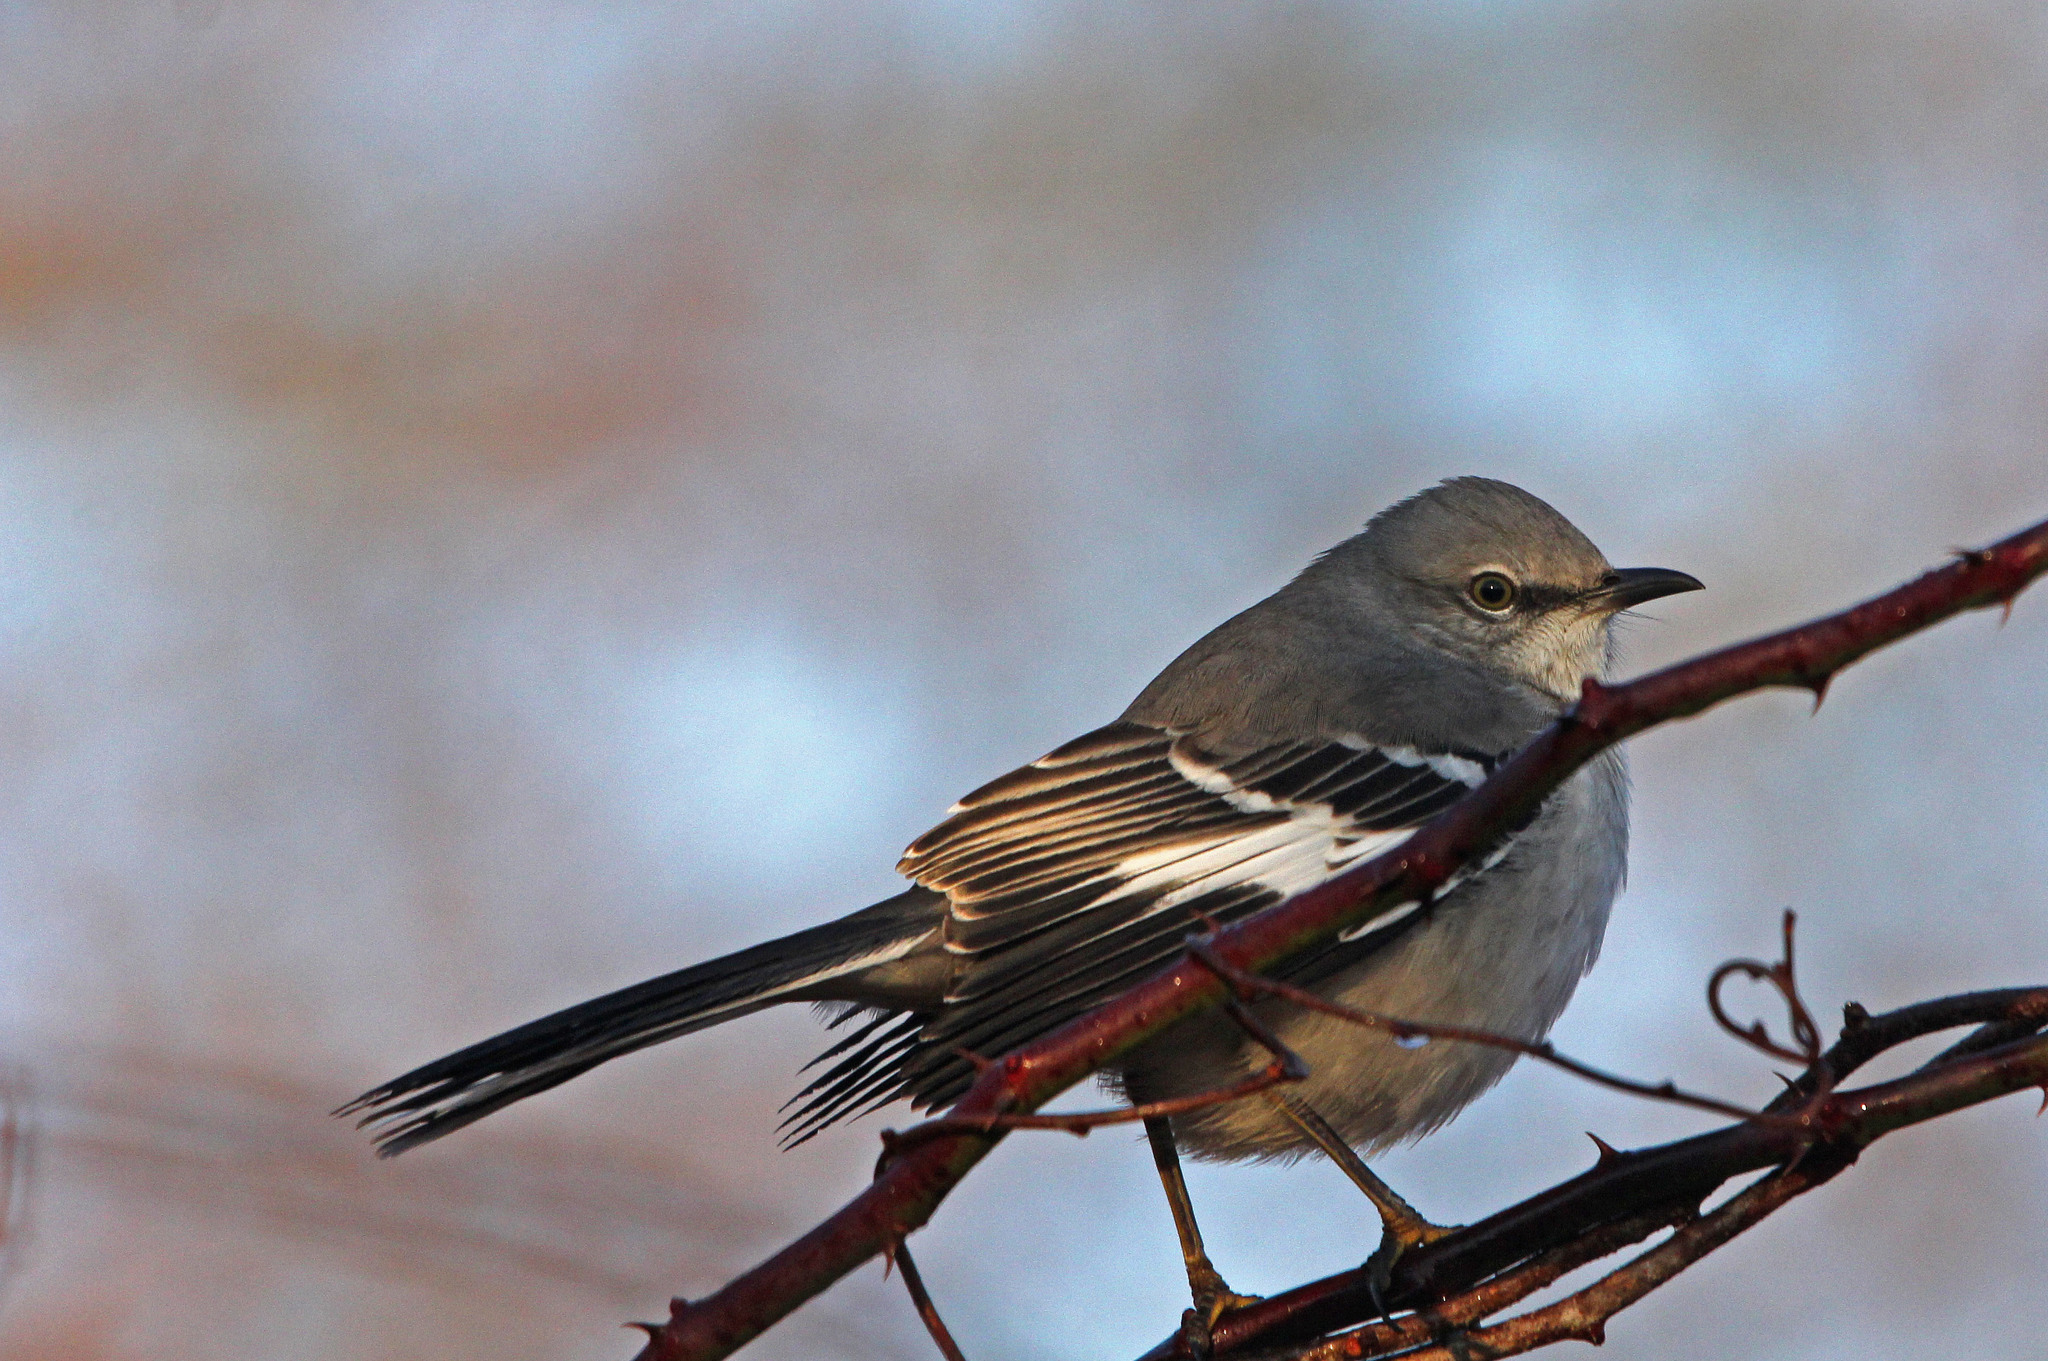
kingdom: Animalia
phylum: Chordata
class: Aves
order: Passeriformes
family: Mimidae
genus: Mimus
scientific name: Mimus polyglottos
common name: Northern mockingbird
